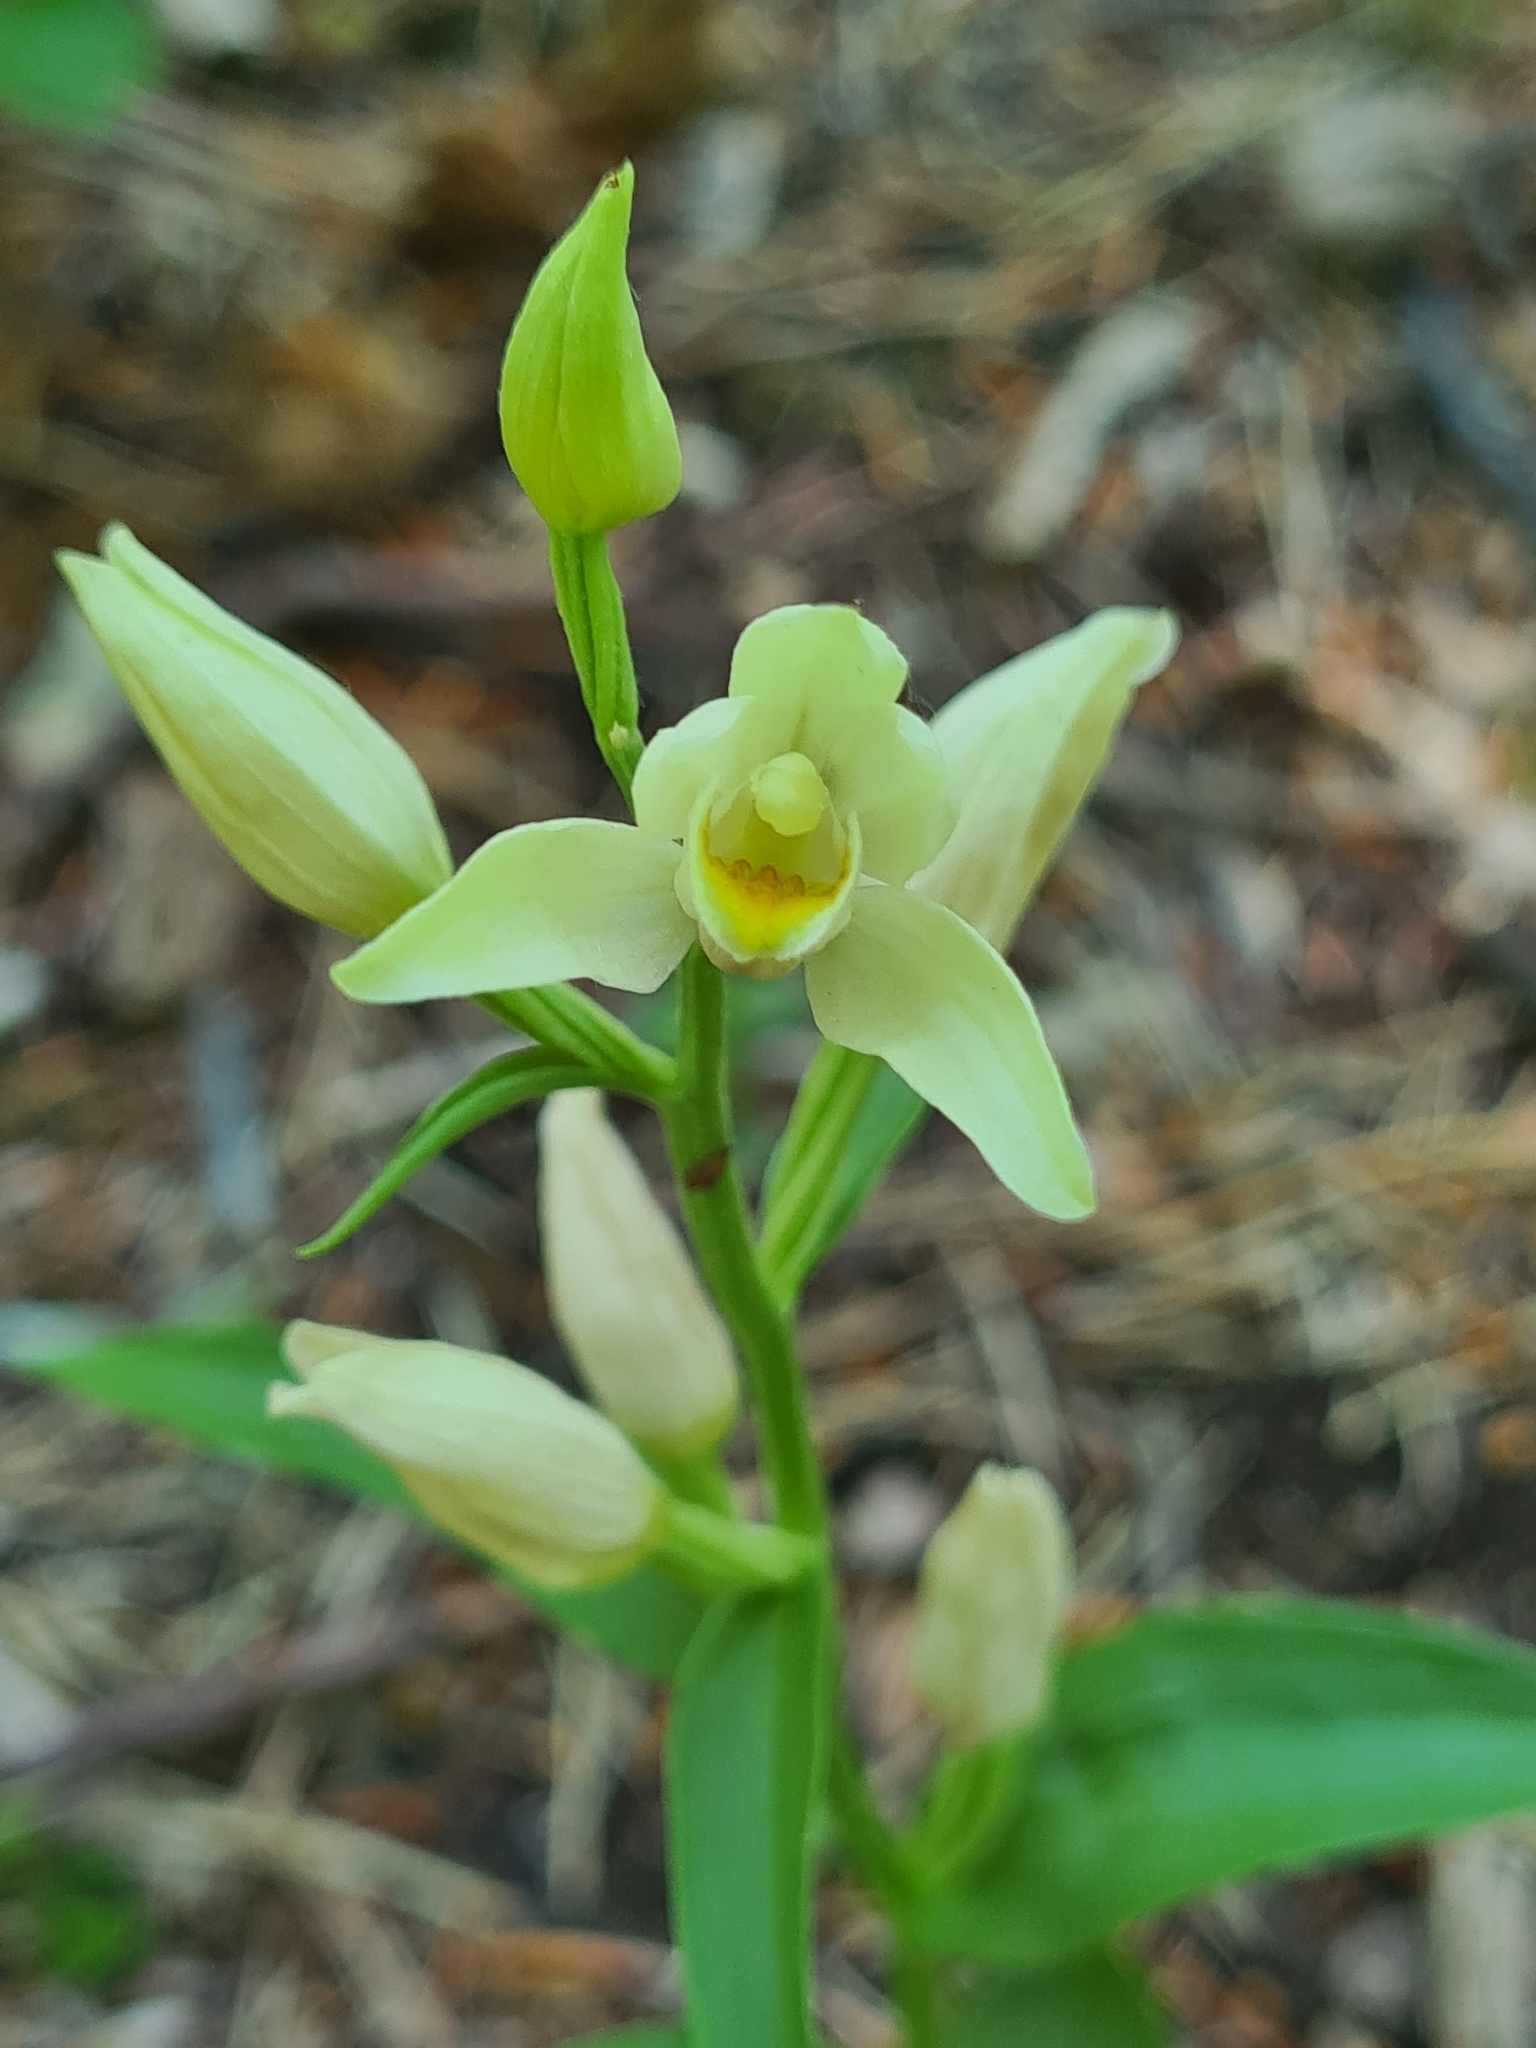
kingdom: Plantae
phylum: Tracheophyta
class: Liliopsida
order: Asparagales
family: Orchidaceae
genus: Cephalanthera
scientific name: Cephalanthera damasonium
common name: White helleborine
